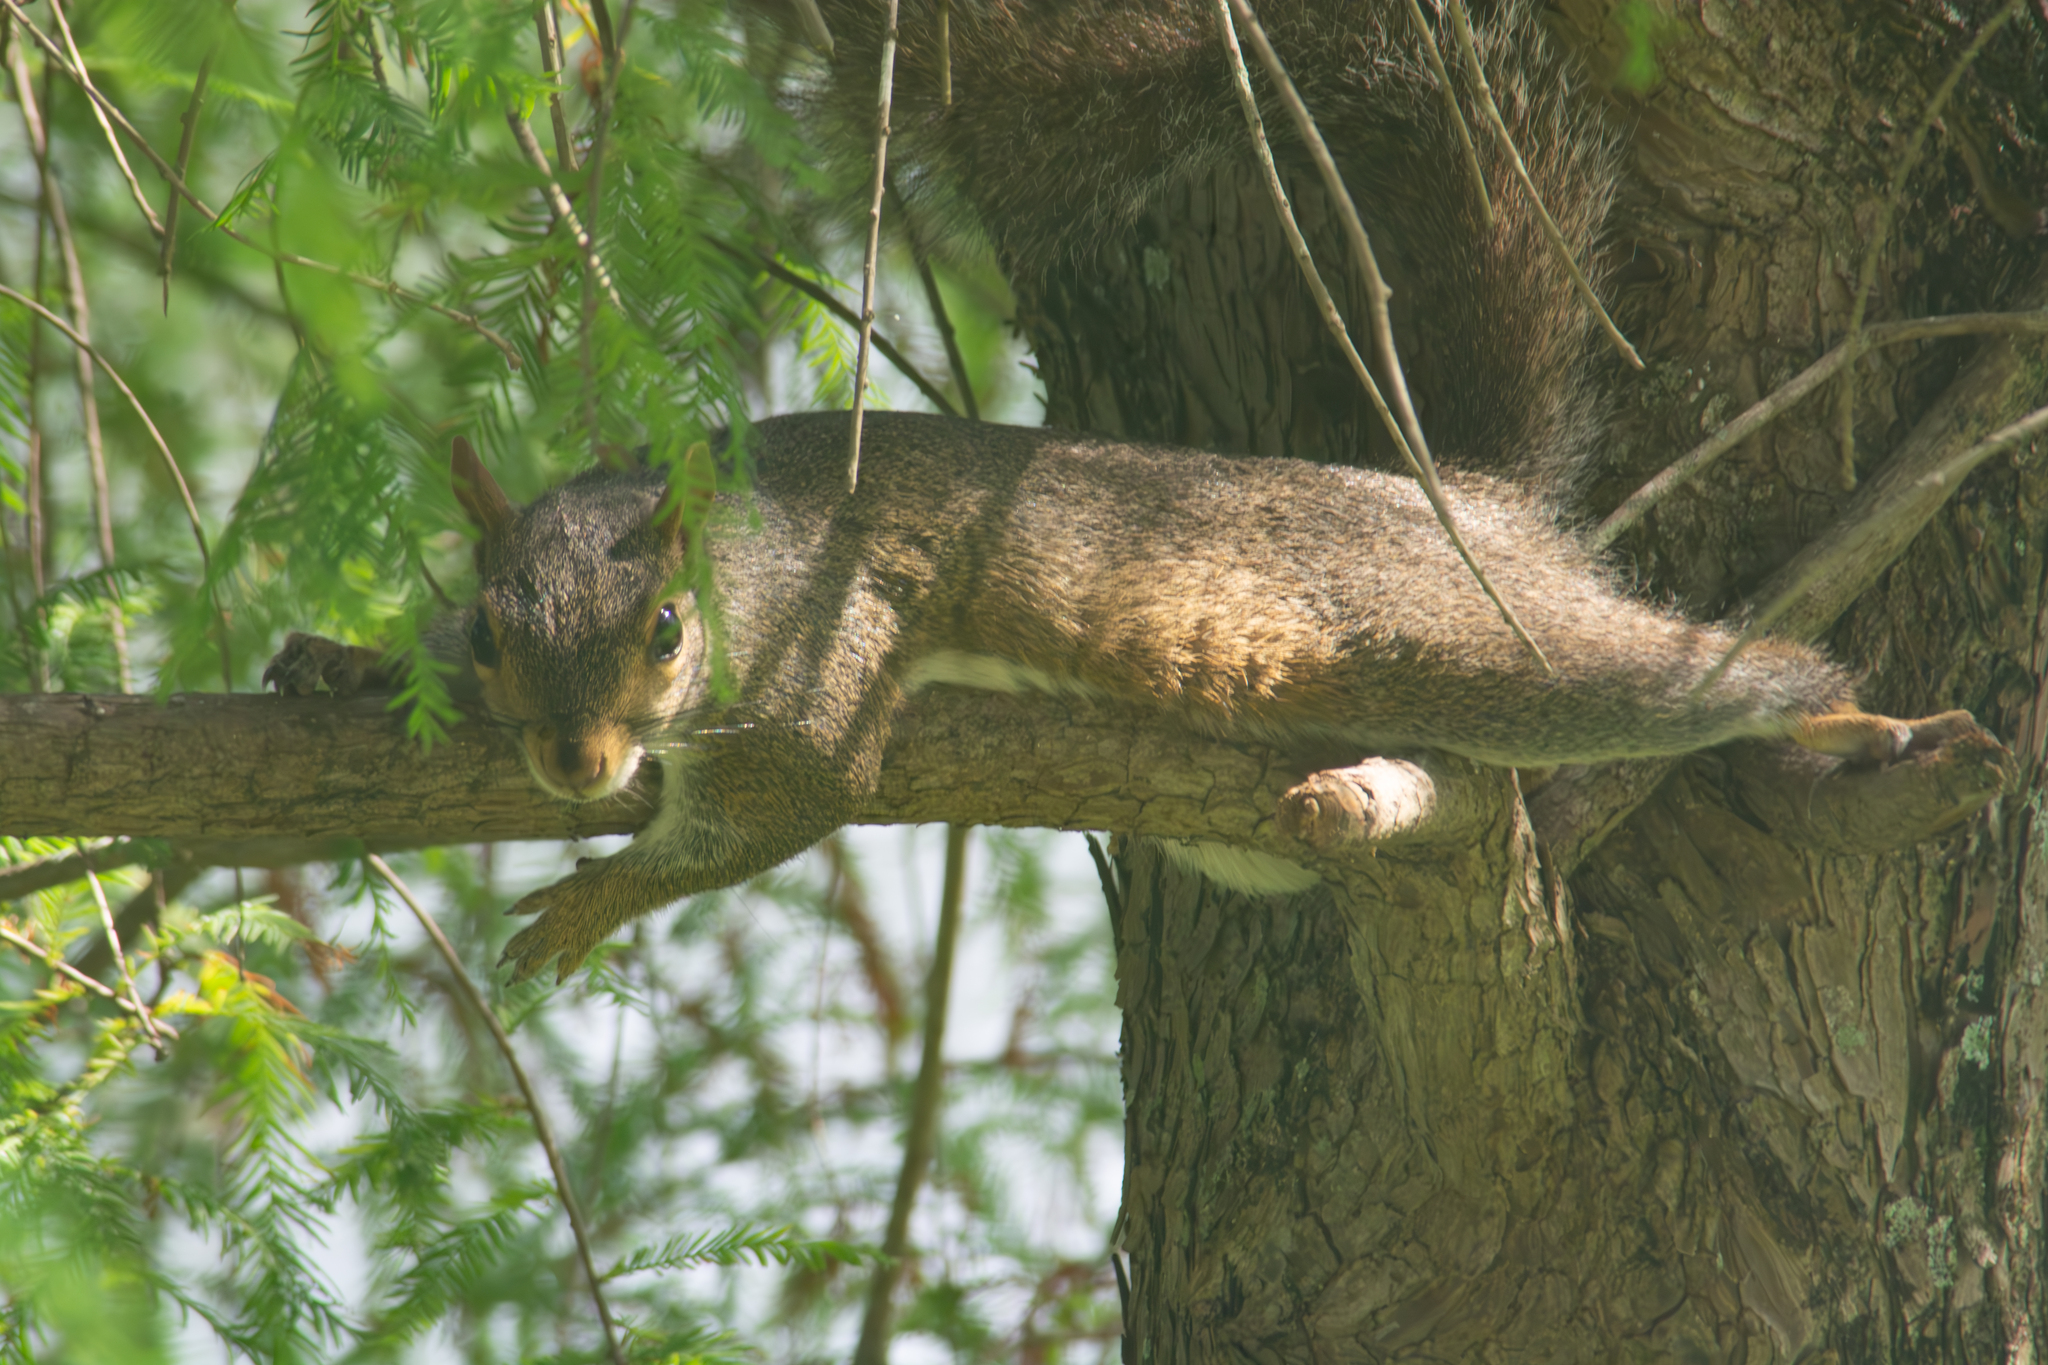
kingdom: Animalia
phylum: Chordata
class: Mammalia
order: Rodentia
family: Sciuridae
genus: Sciurus
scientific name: Sciurus carolinensis
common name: Eastern gray squirrel
